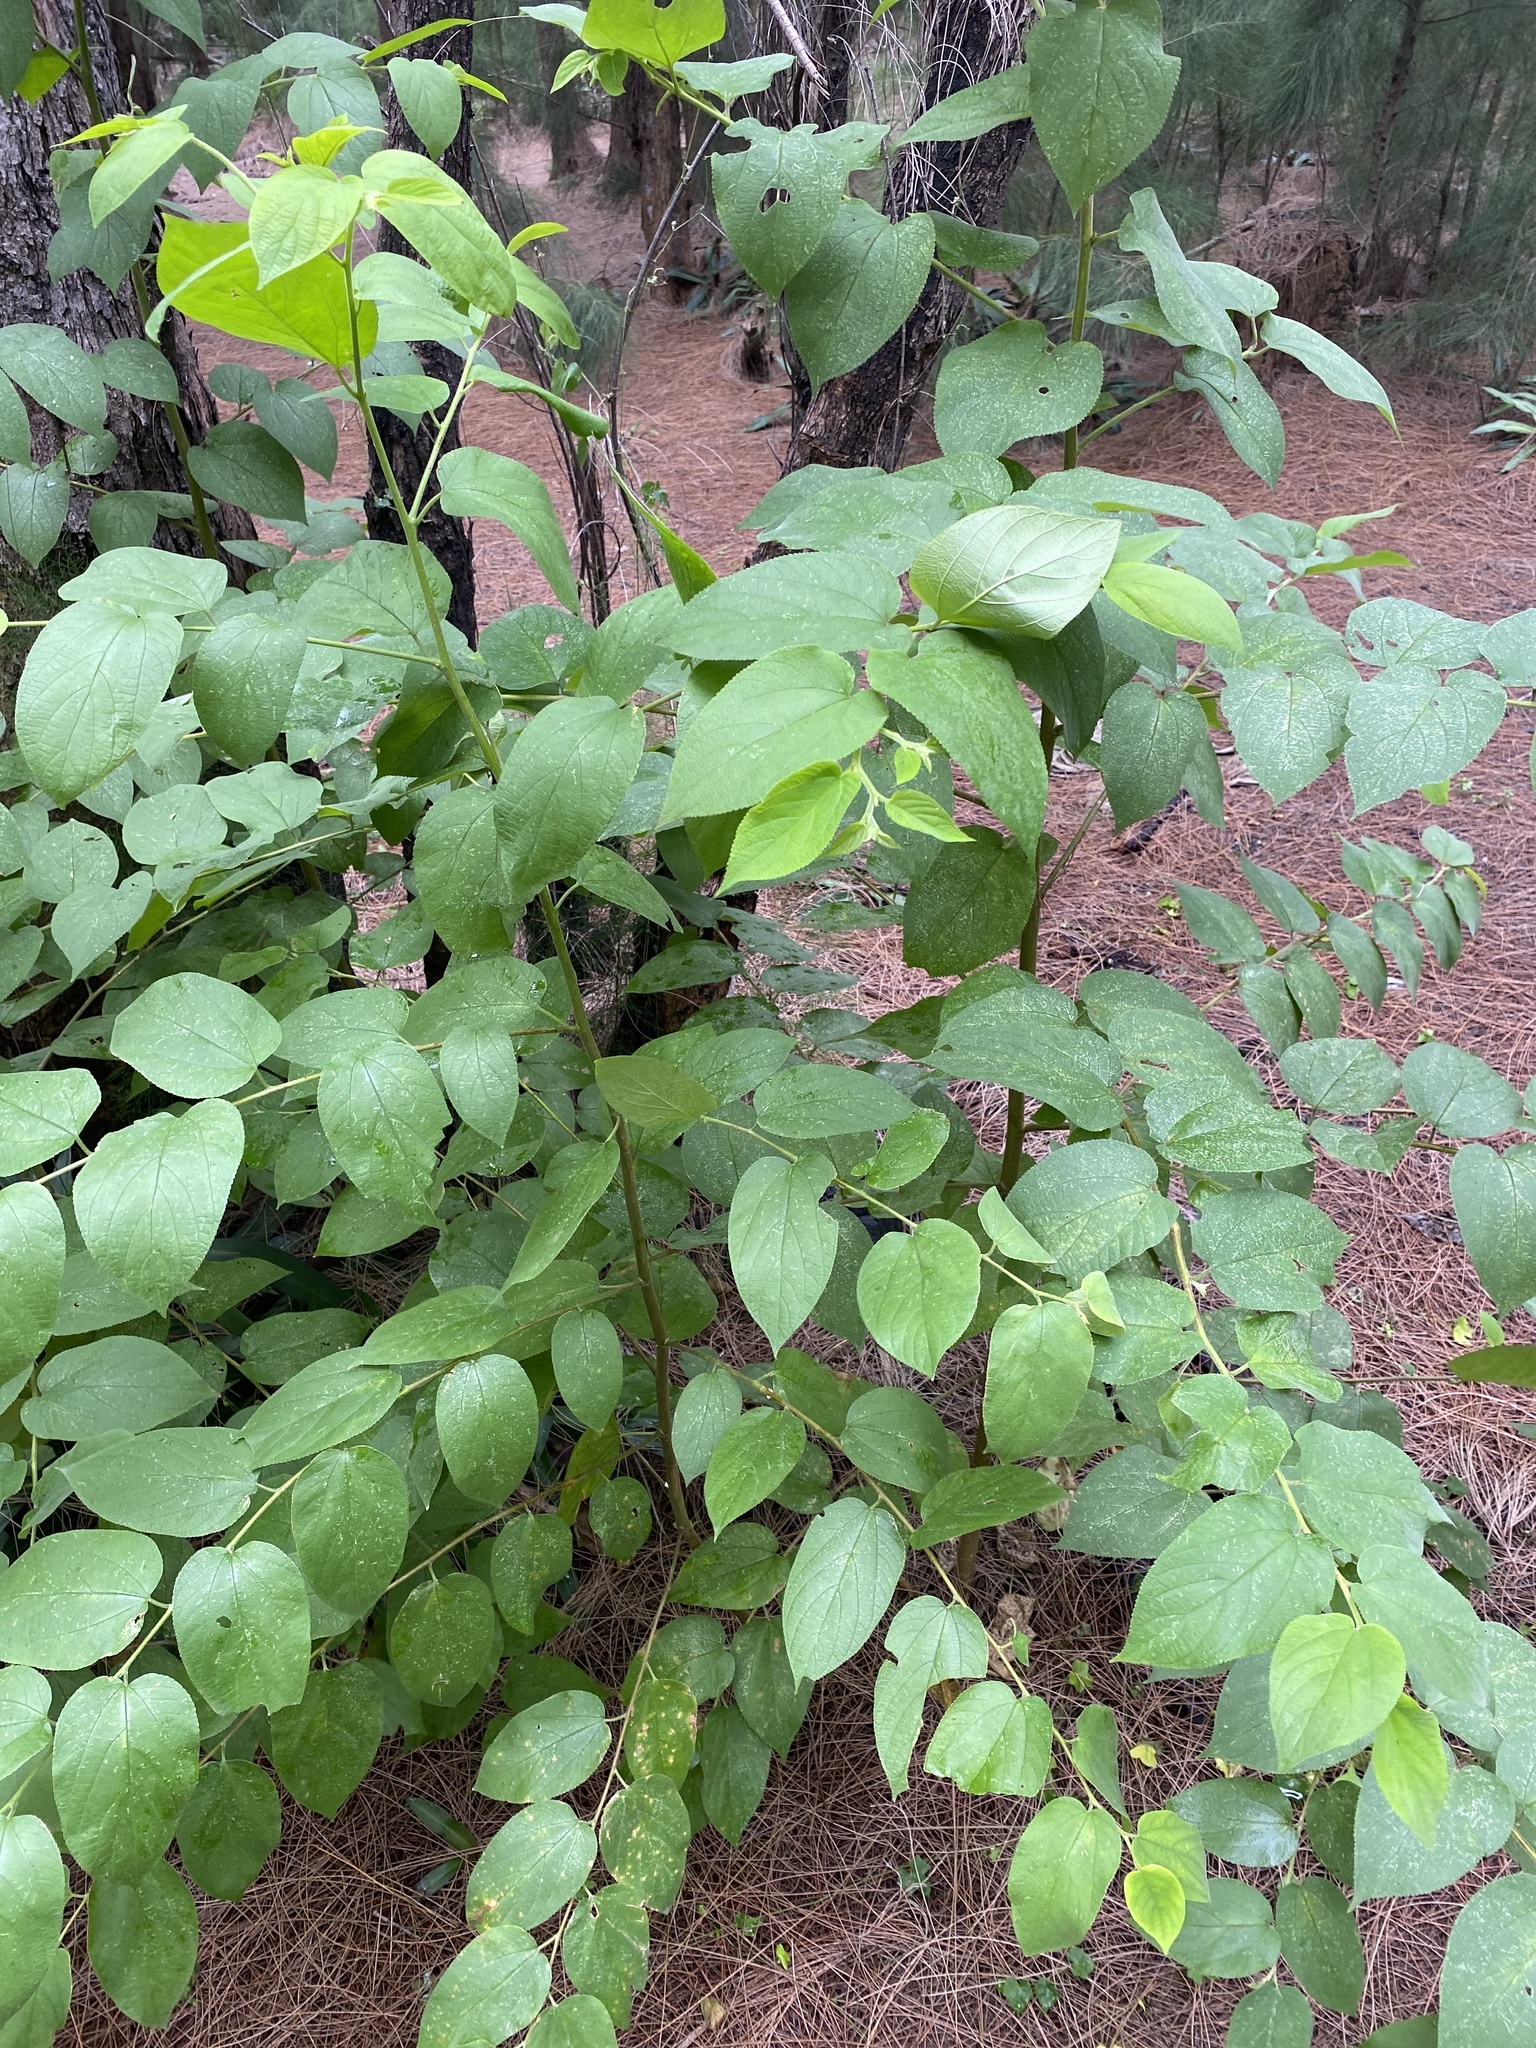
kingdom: Plantae
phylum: Tracheophyta
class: Magnoliopsida
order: Rosales
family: Cannabaceae
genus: Trema
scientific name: Trema micranthum
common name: Jamaican nettletree
